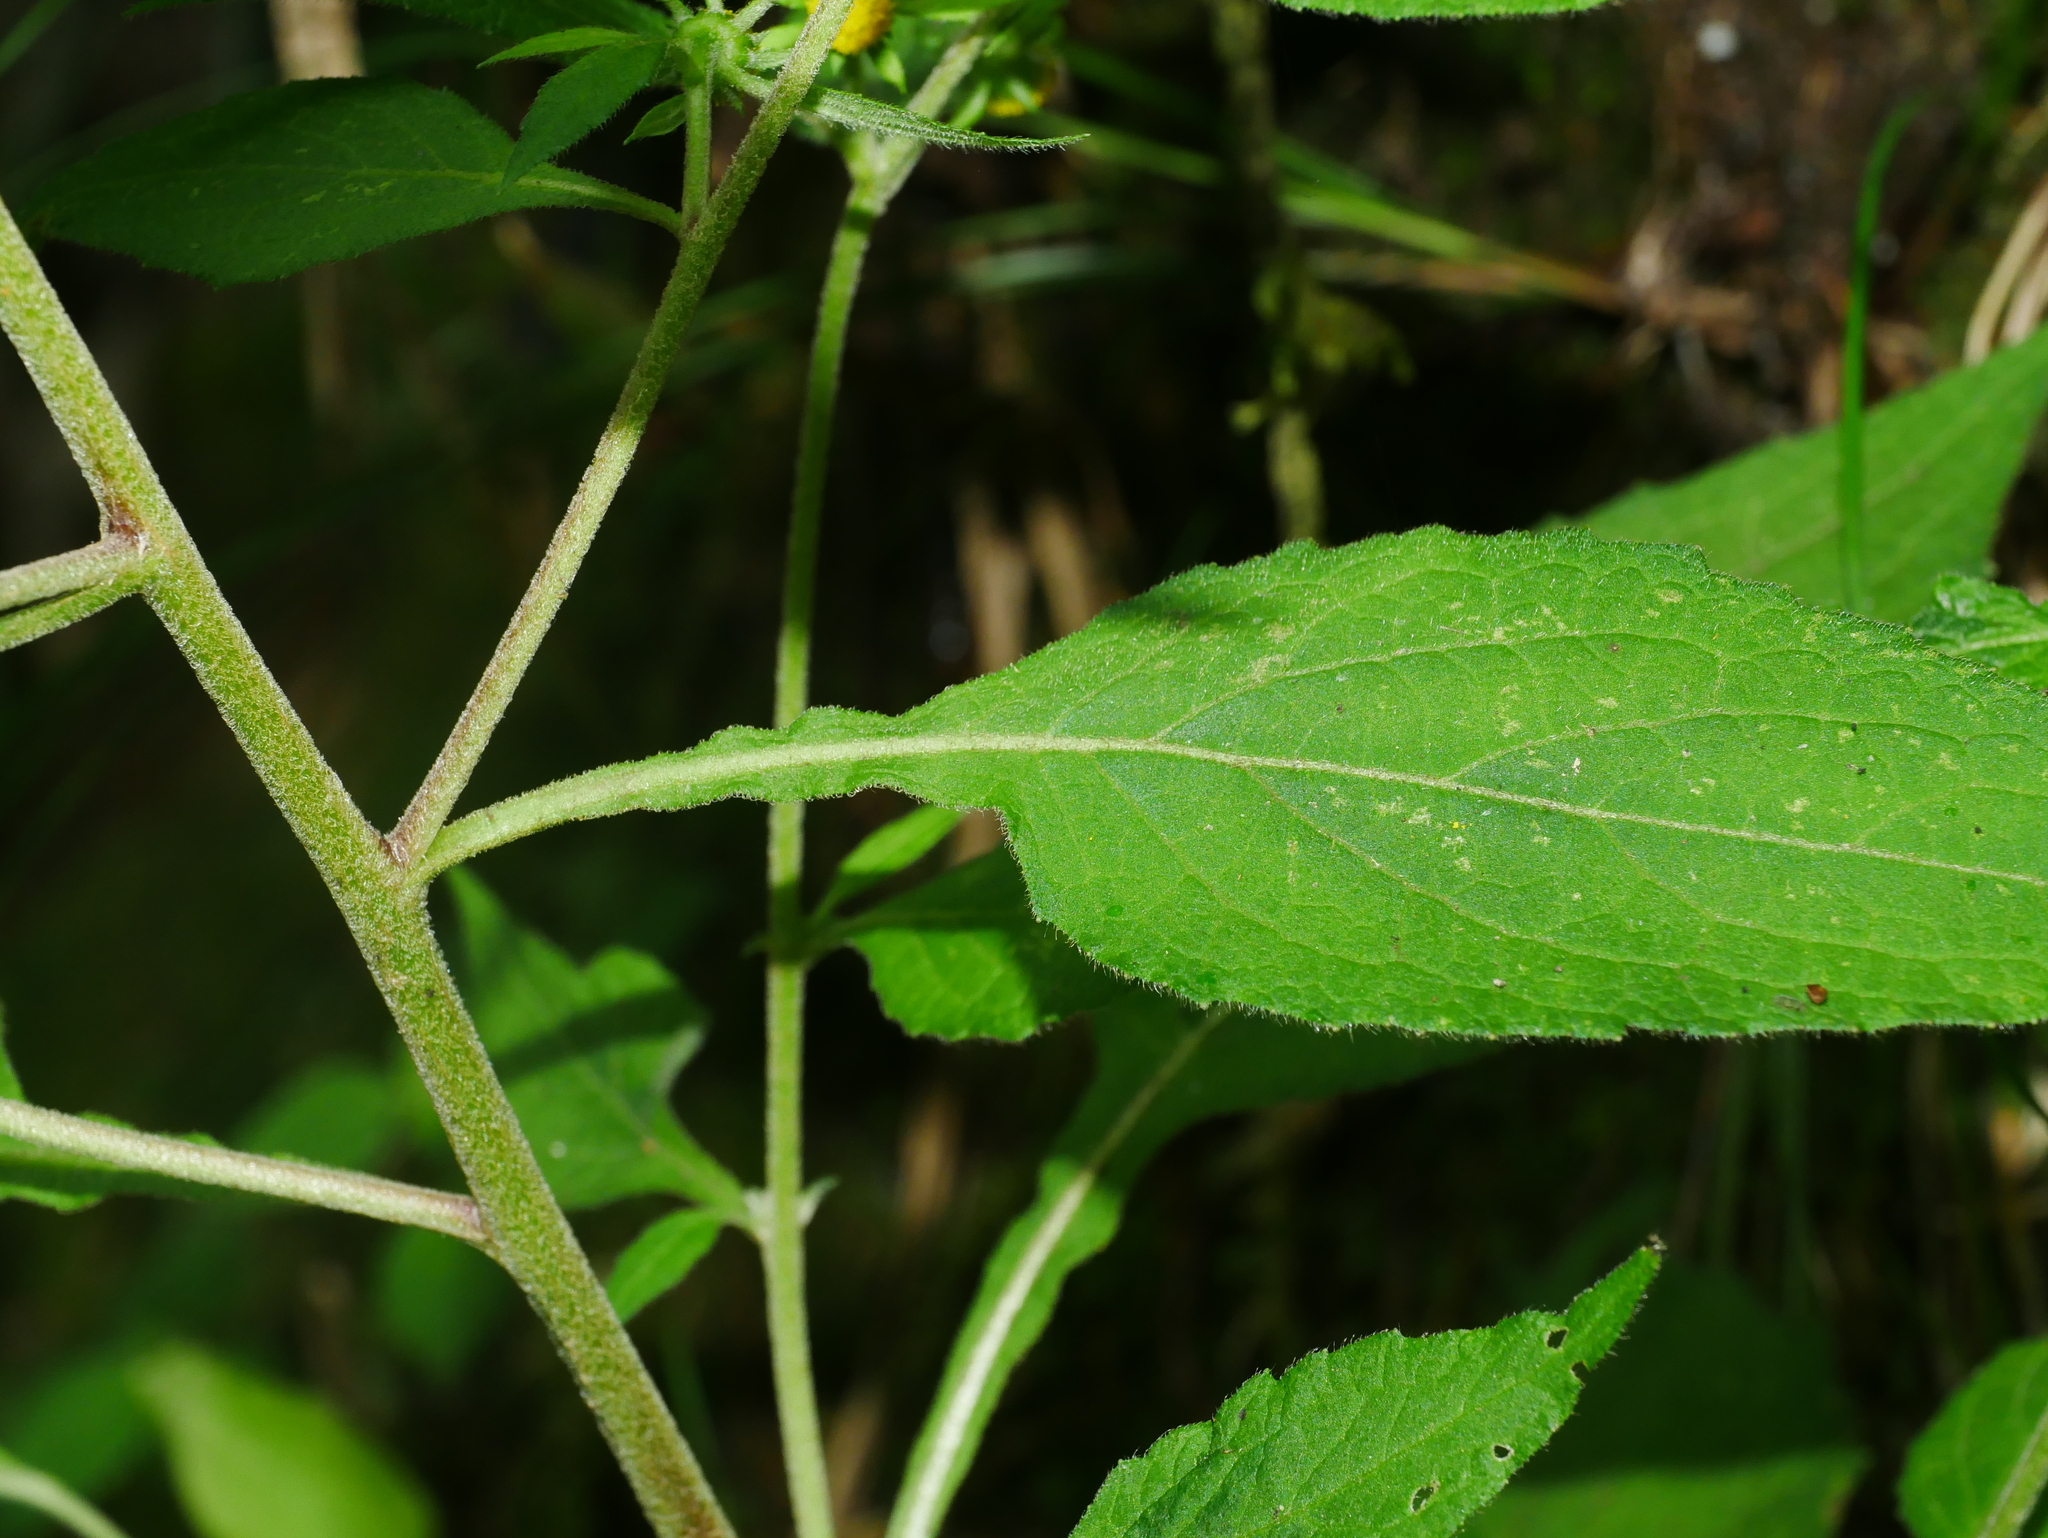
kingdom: Plantae
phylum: Tracheophyta
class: Magnoliopsida
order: Asterales
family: Asteraceae
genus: Carpesium
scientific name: Carpesium nepalense
